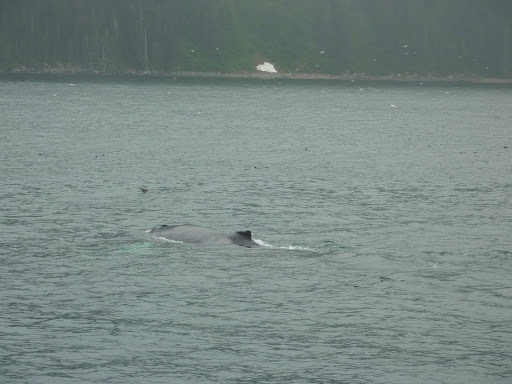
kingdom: Animalia
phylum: Chordata
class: Mammalia
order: Cetacea
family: Balaenopteridae
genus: Megaptera
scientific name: Megaptera novaeangliae
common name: Humpback whale
